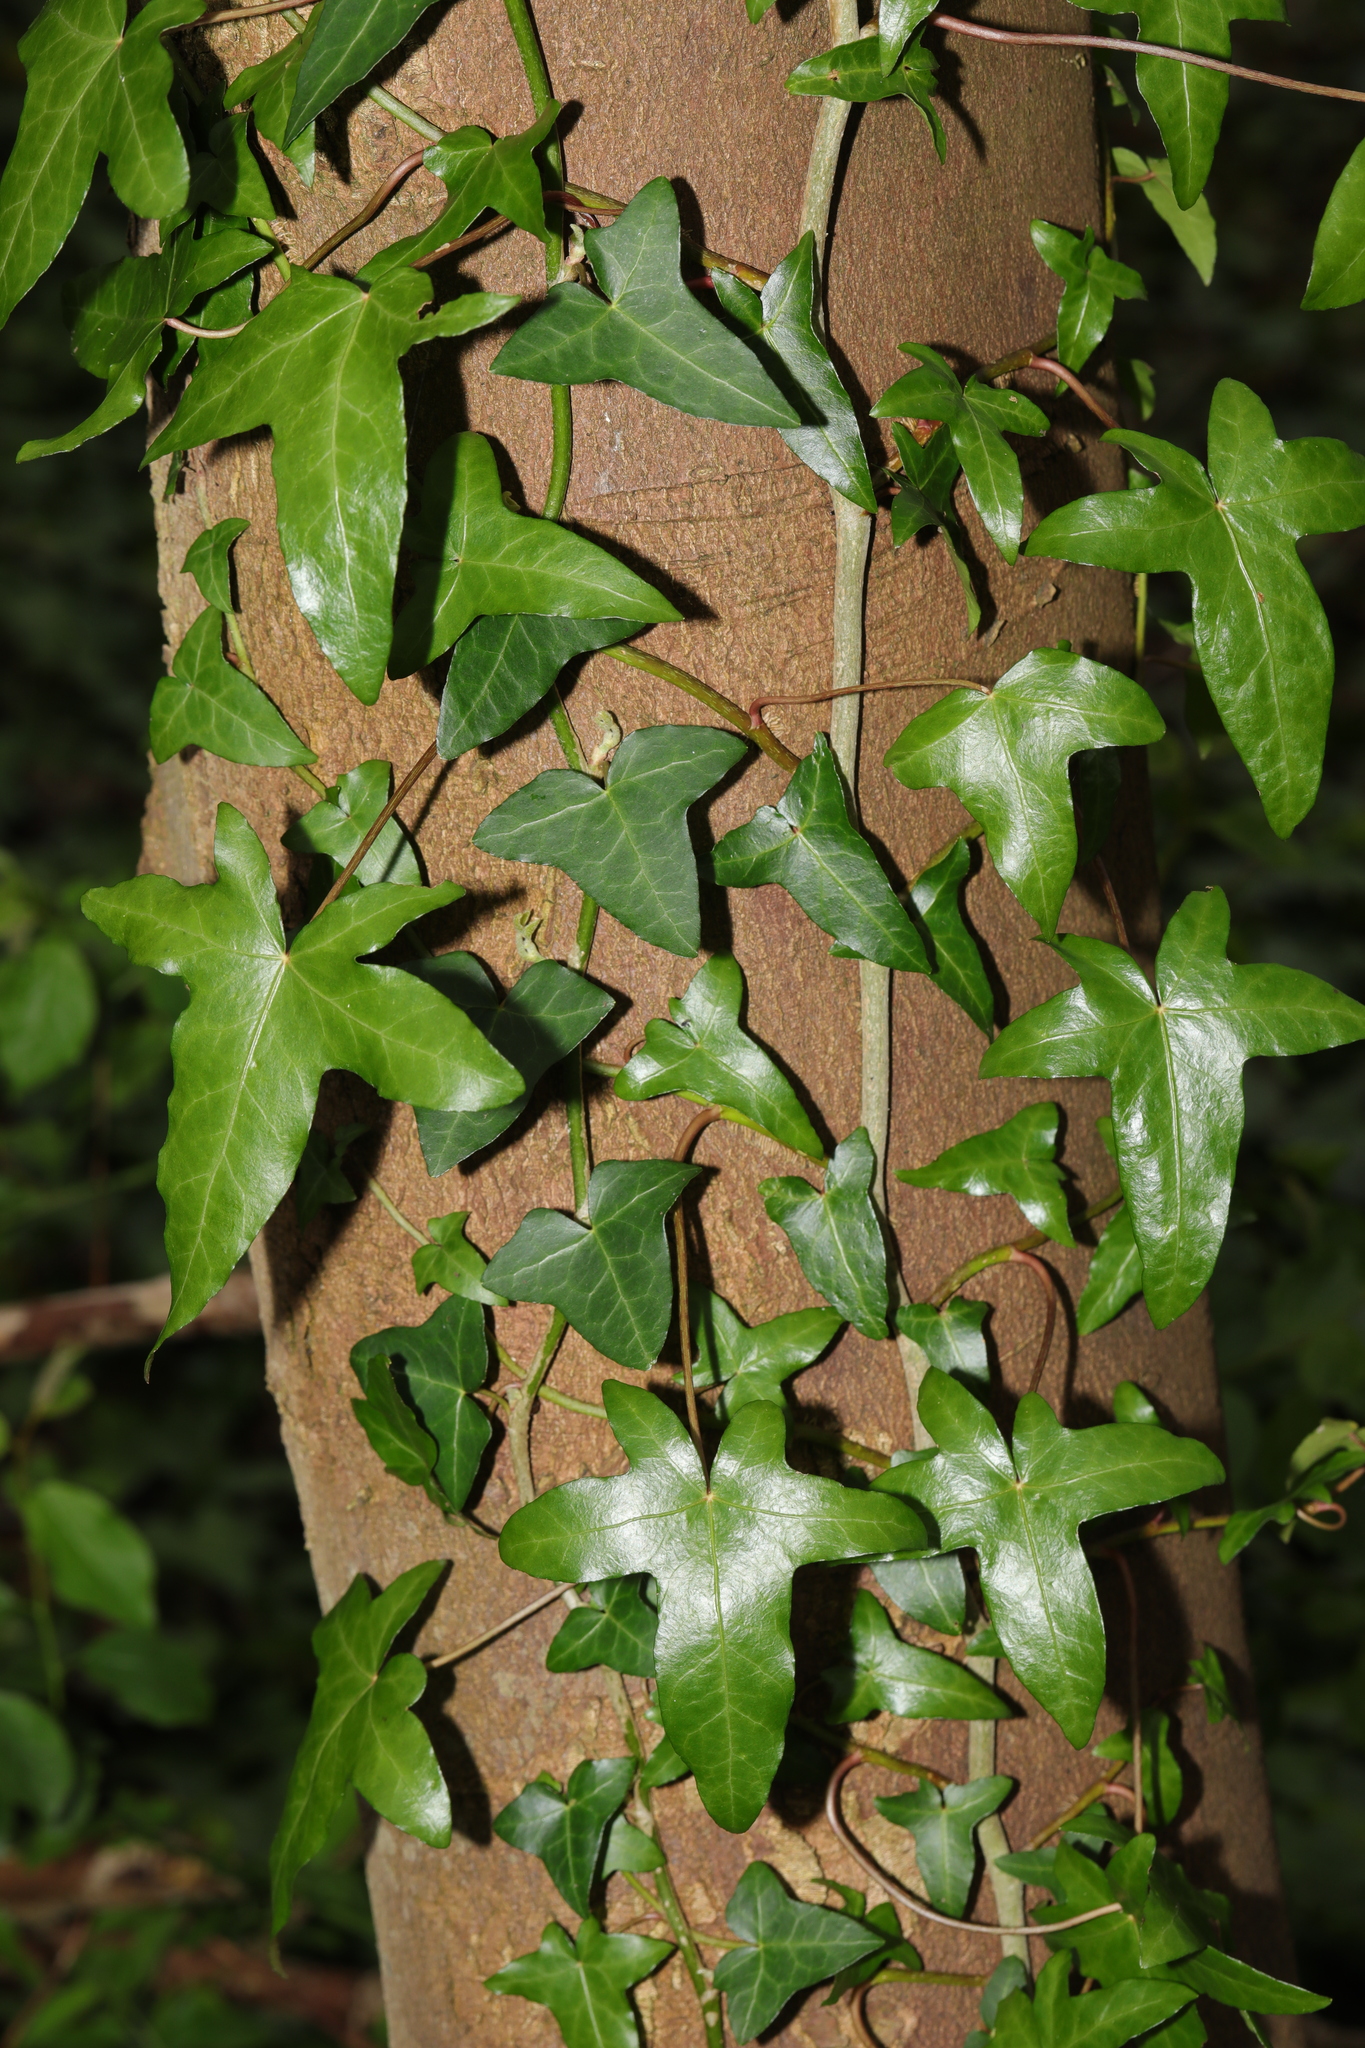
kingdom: Plantae
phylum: Tracheophyta
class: Magnoliopsida
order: Apiales
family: Araliaceae
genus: Hedera
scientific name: Hedera helix
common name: Ivy
